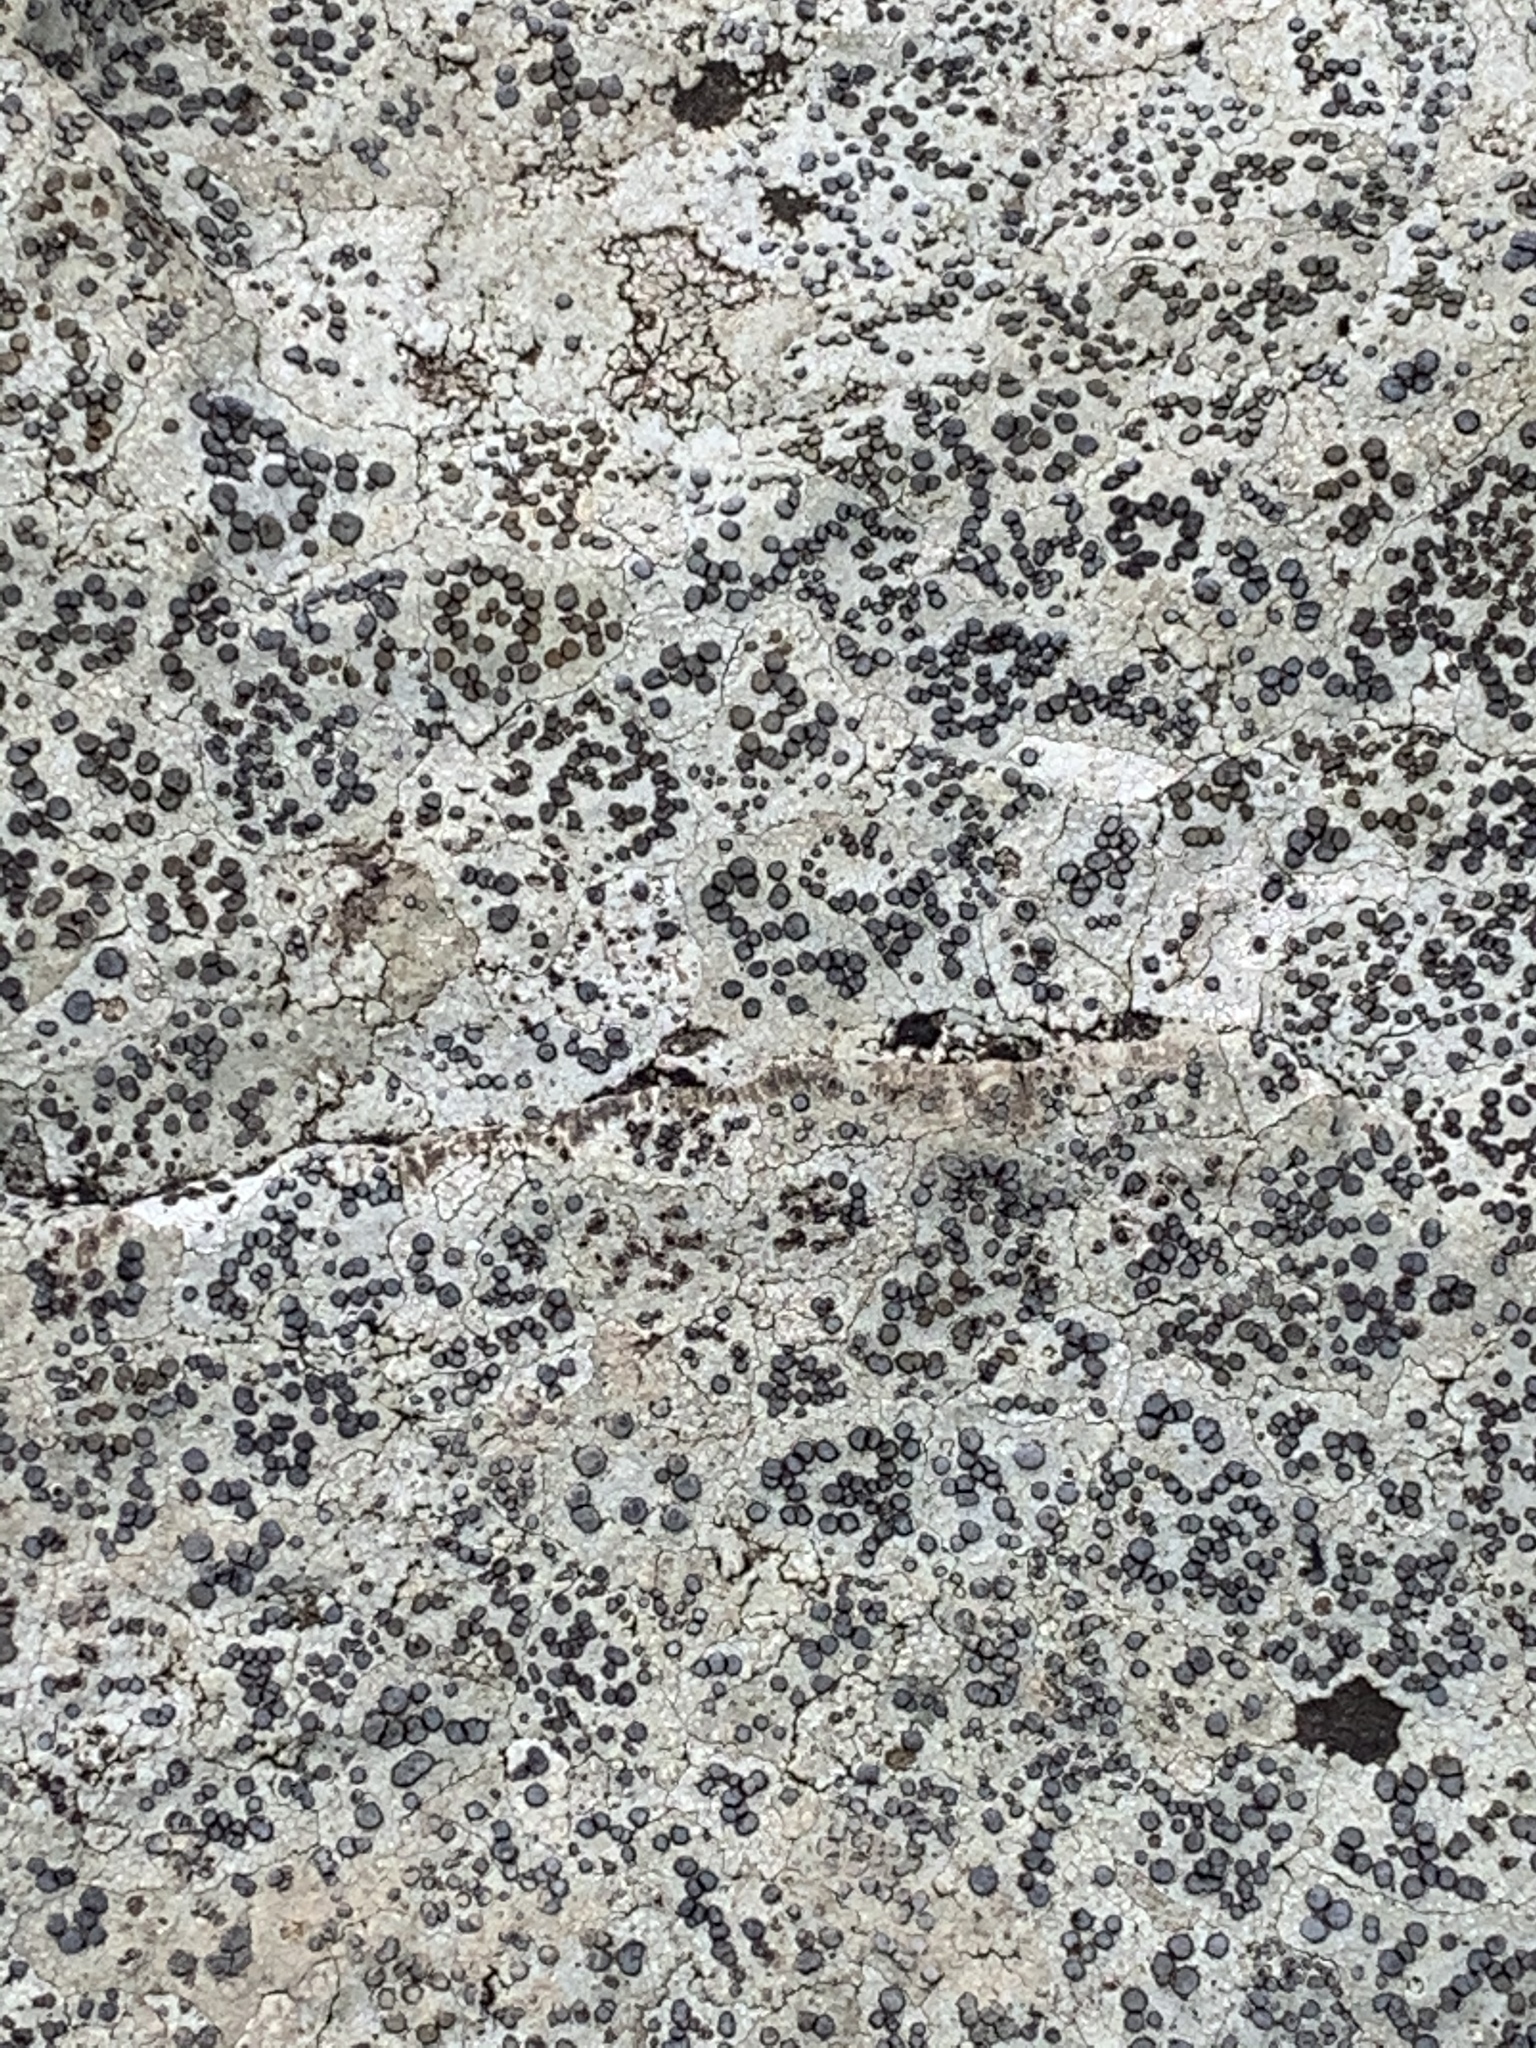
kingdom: Fungi
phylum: Ascomycota
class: Lecanoromycetes
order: Lecideales
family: Lecideaceae
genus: Porpidia
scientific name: Porpidia albocaerulescens
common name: Smokey-eyed boulder lichen
